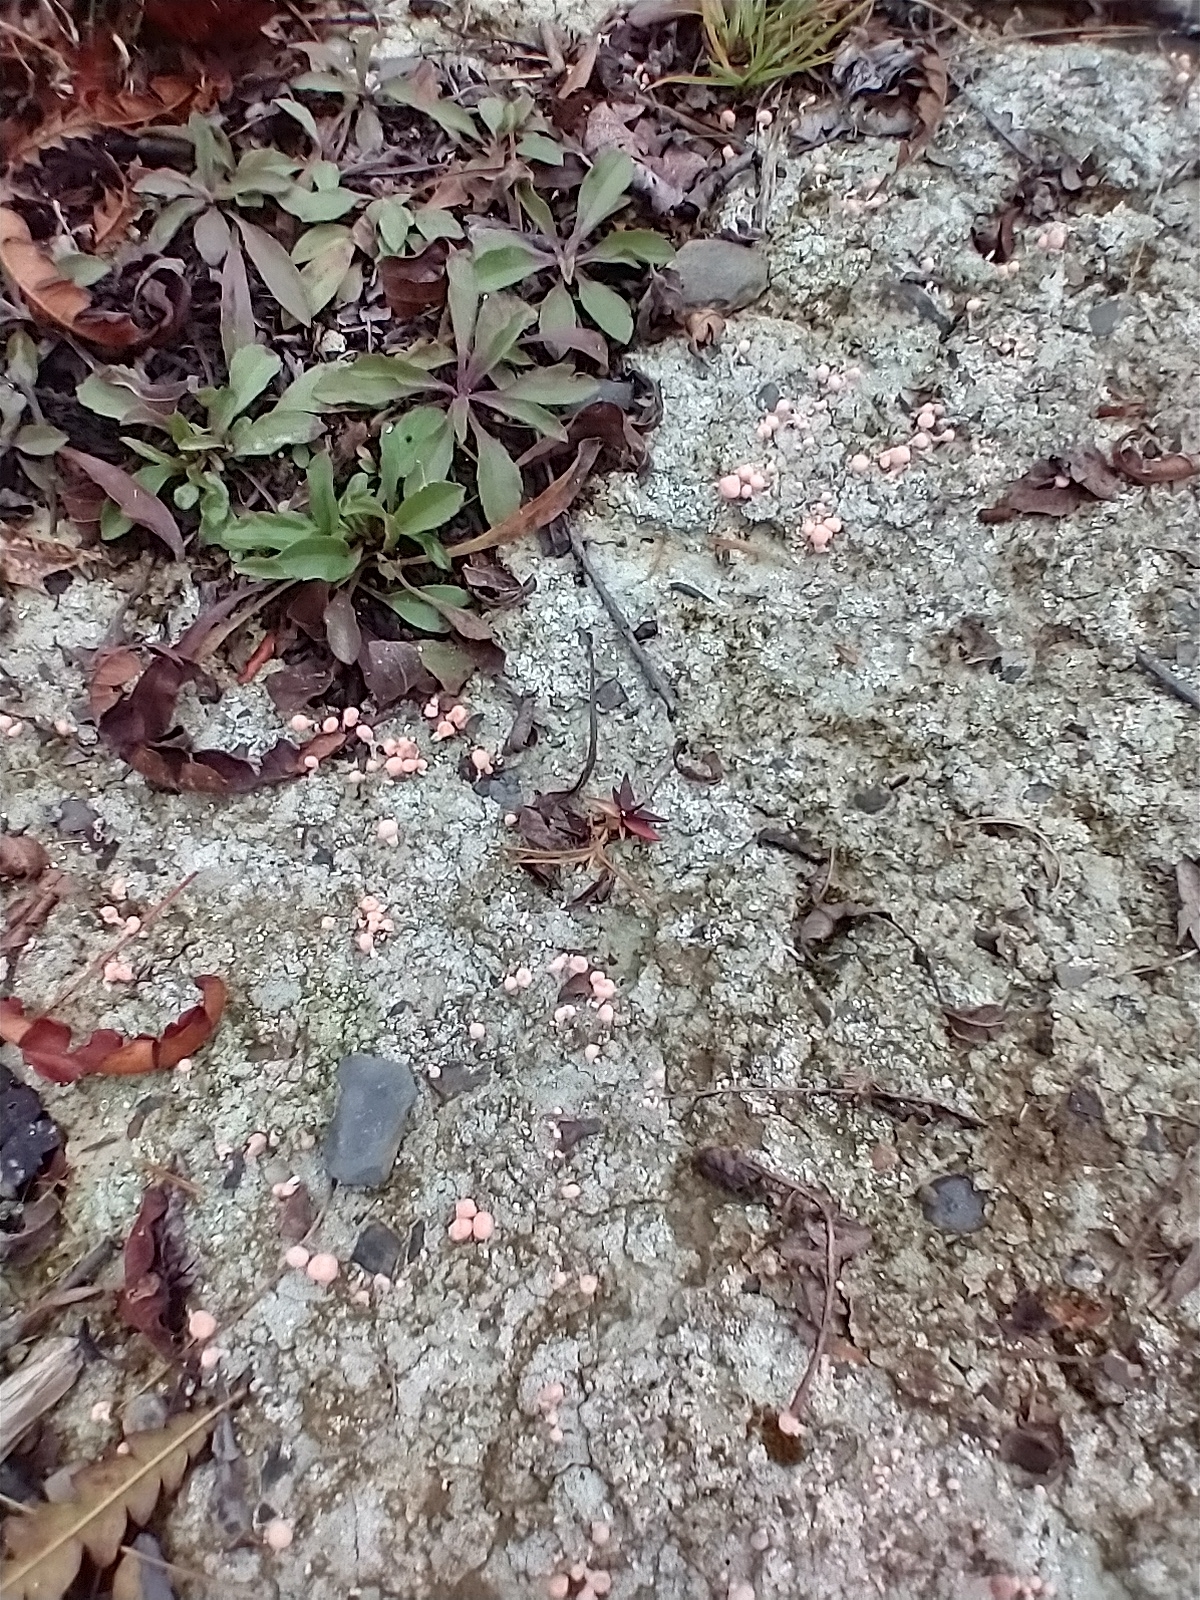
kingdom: Fungi
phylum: Ascomycota
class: Lecanoromycetes
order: Pertusariales
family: Icmadophilaceae
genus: Dibaeis
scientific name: Dibaeis baeomyces
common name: Pink earth lichen
